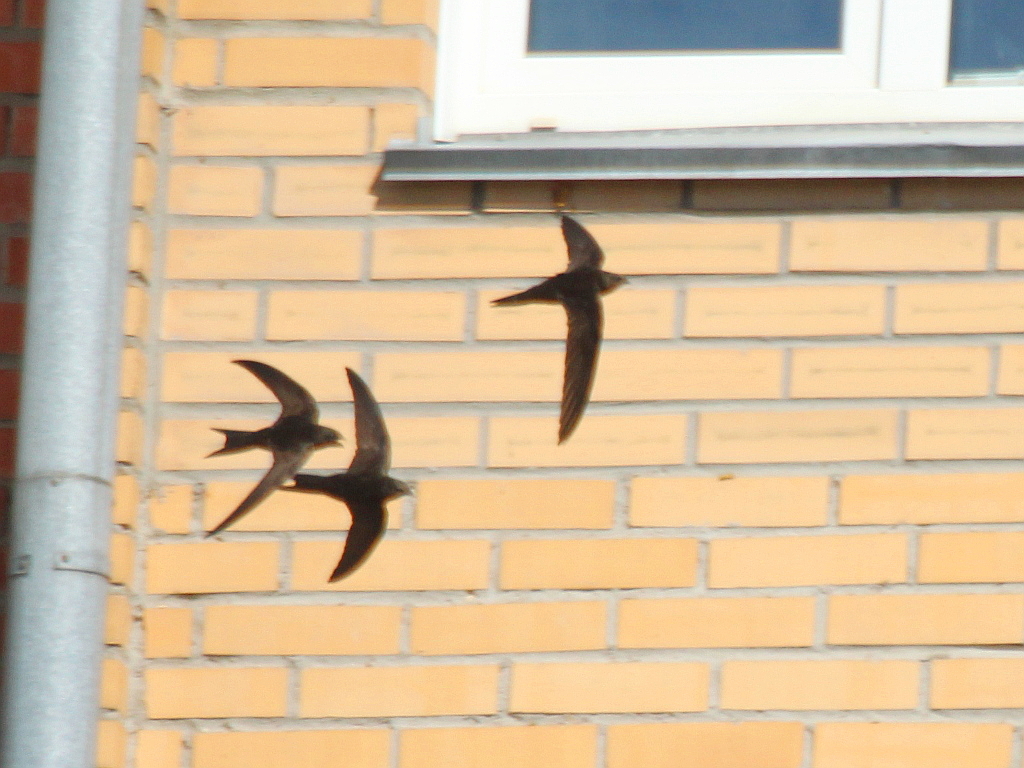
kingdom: Animalia
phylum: Chordata
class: Aves
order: Apodiformes
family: Apodidae
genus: Apus
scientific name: Apus apus
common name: Common swift
